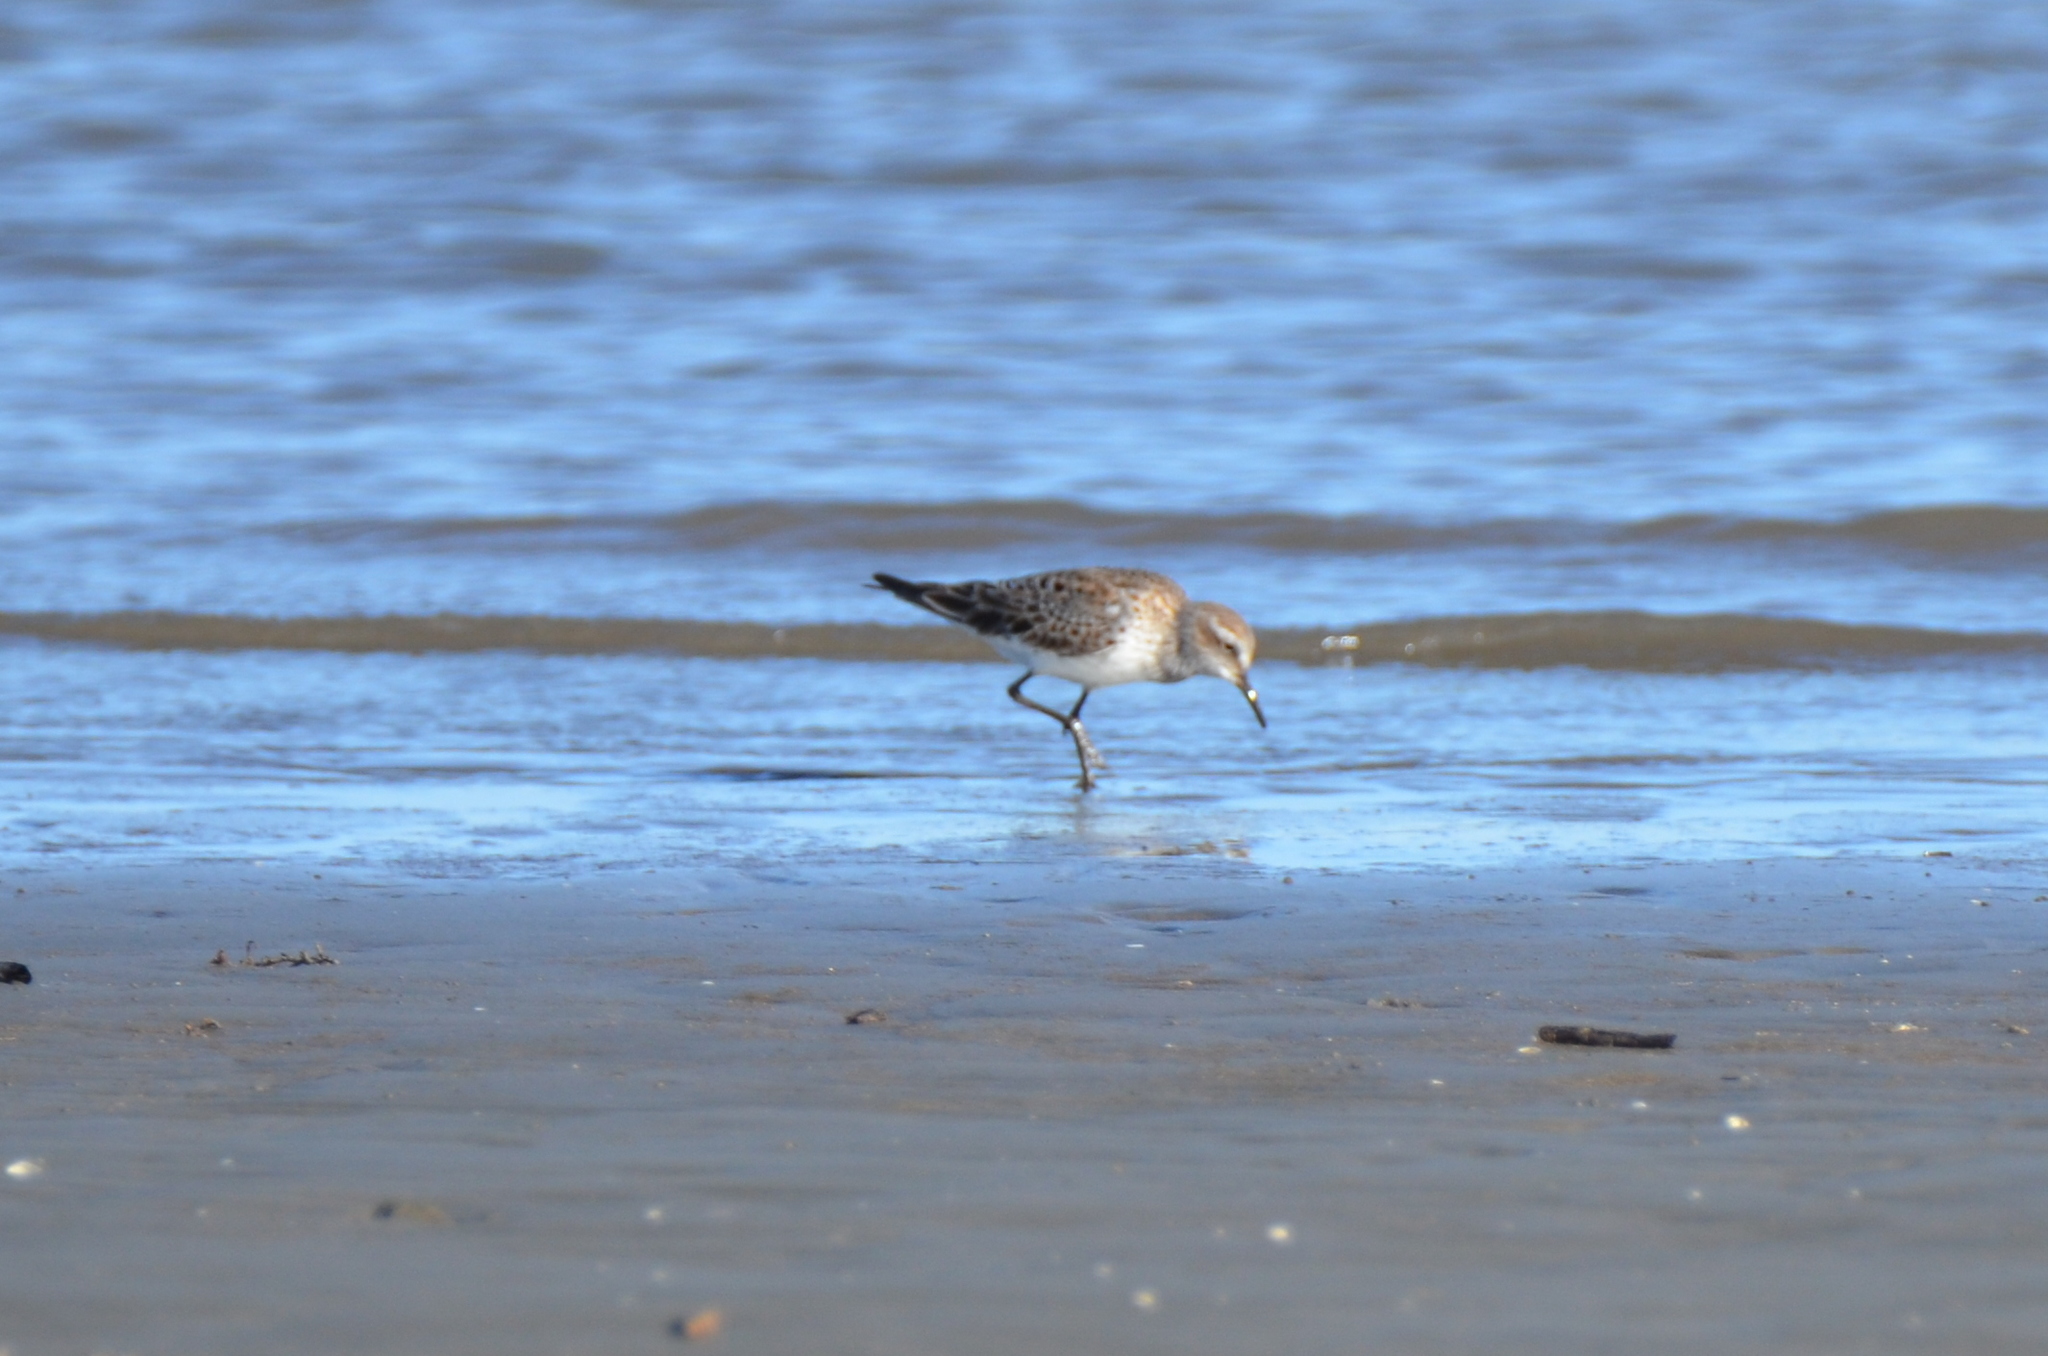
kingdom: Animalia
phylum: Chordata
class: Aves
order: Charadriiformes
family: Scolopacidae
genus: Calidris
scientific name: Calidris fuscicollis
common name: White-rumped sandpiper
